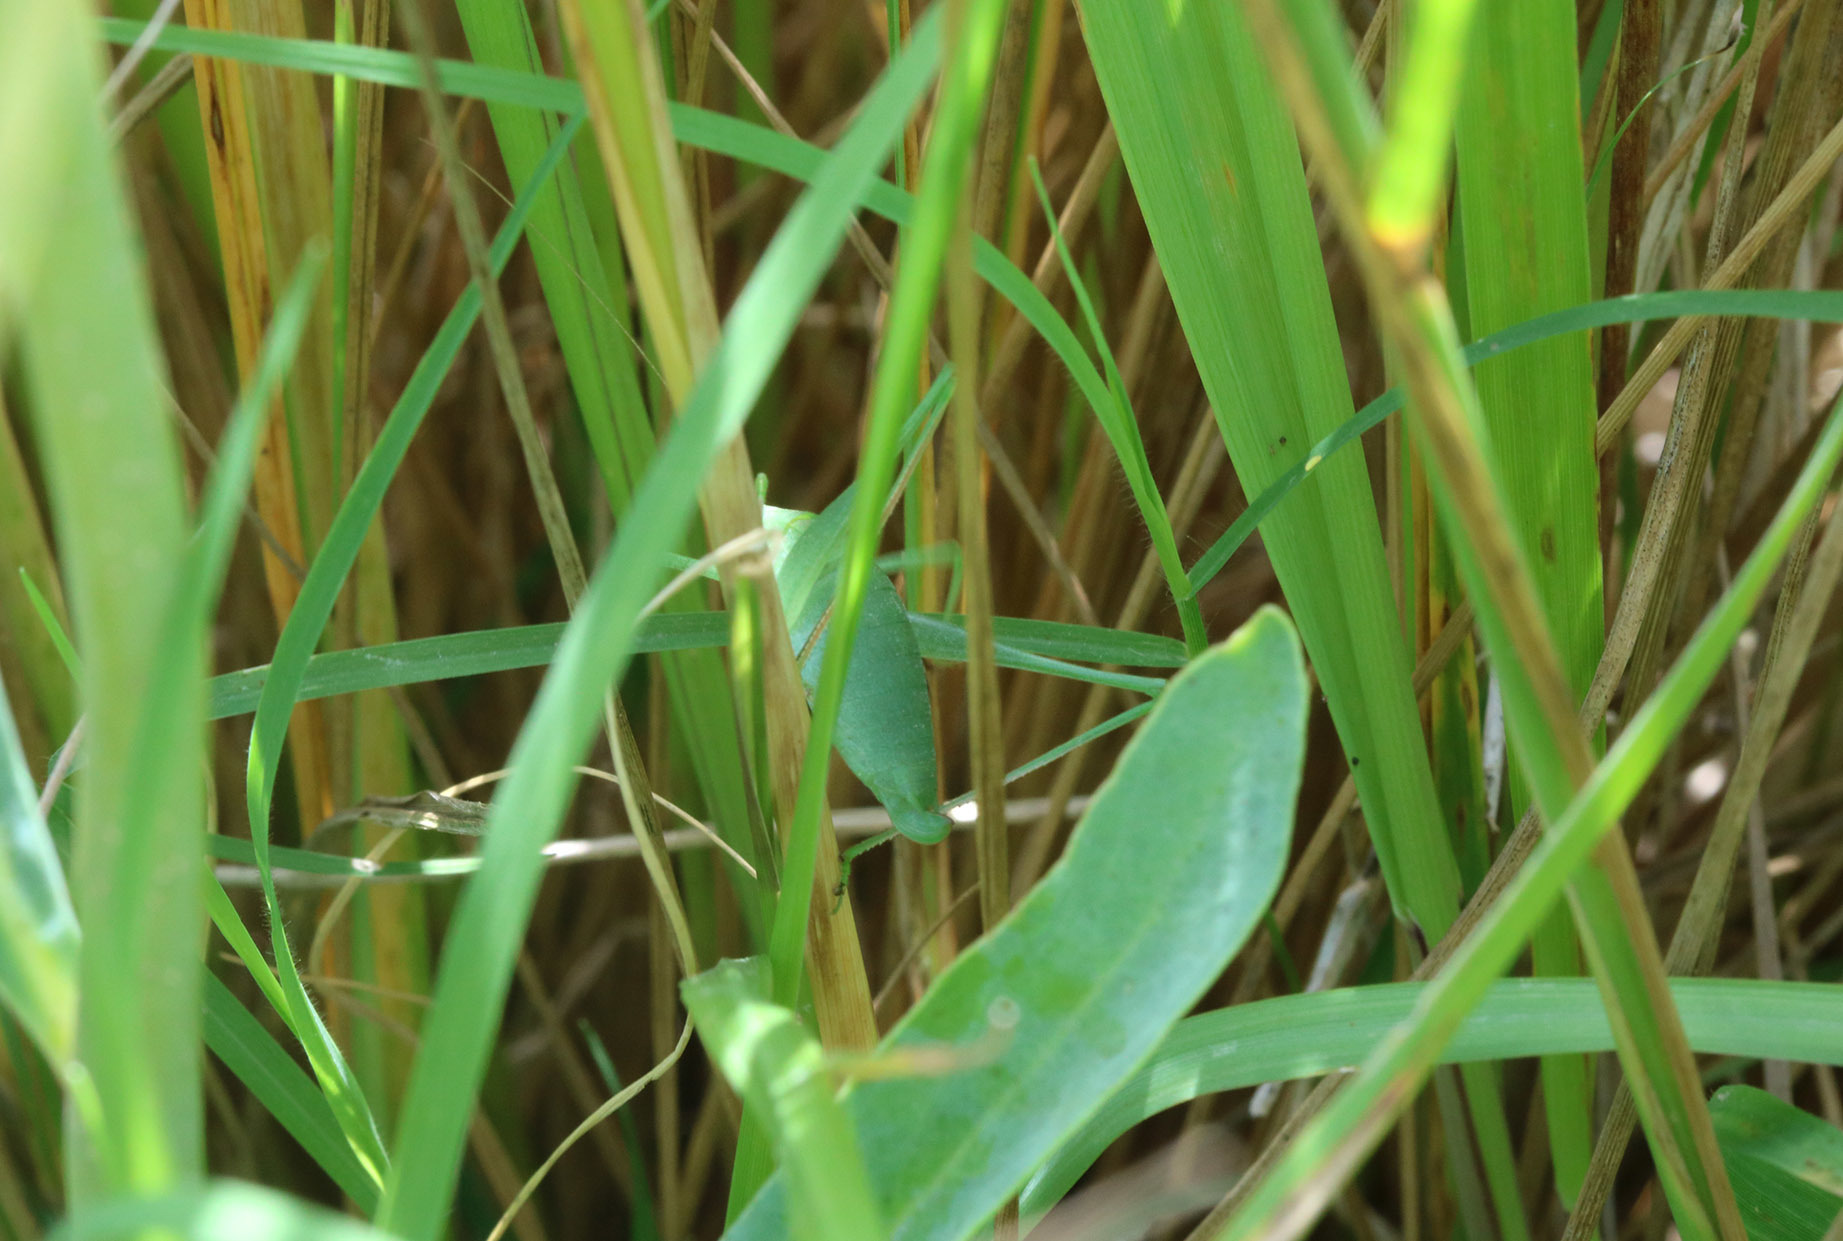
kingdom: Animalia
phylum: Arthropoda
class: Insecta
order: Orthoptera
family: Tettigoniidae
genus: Anisophya
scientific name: Anisophya
